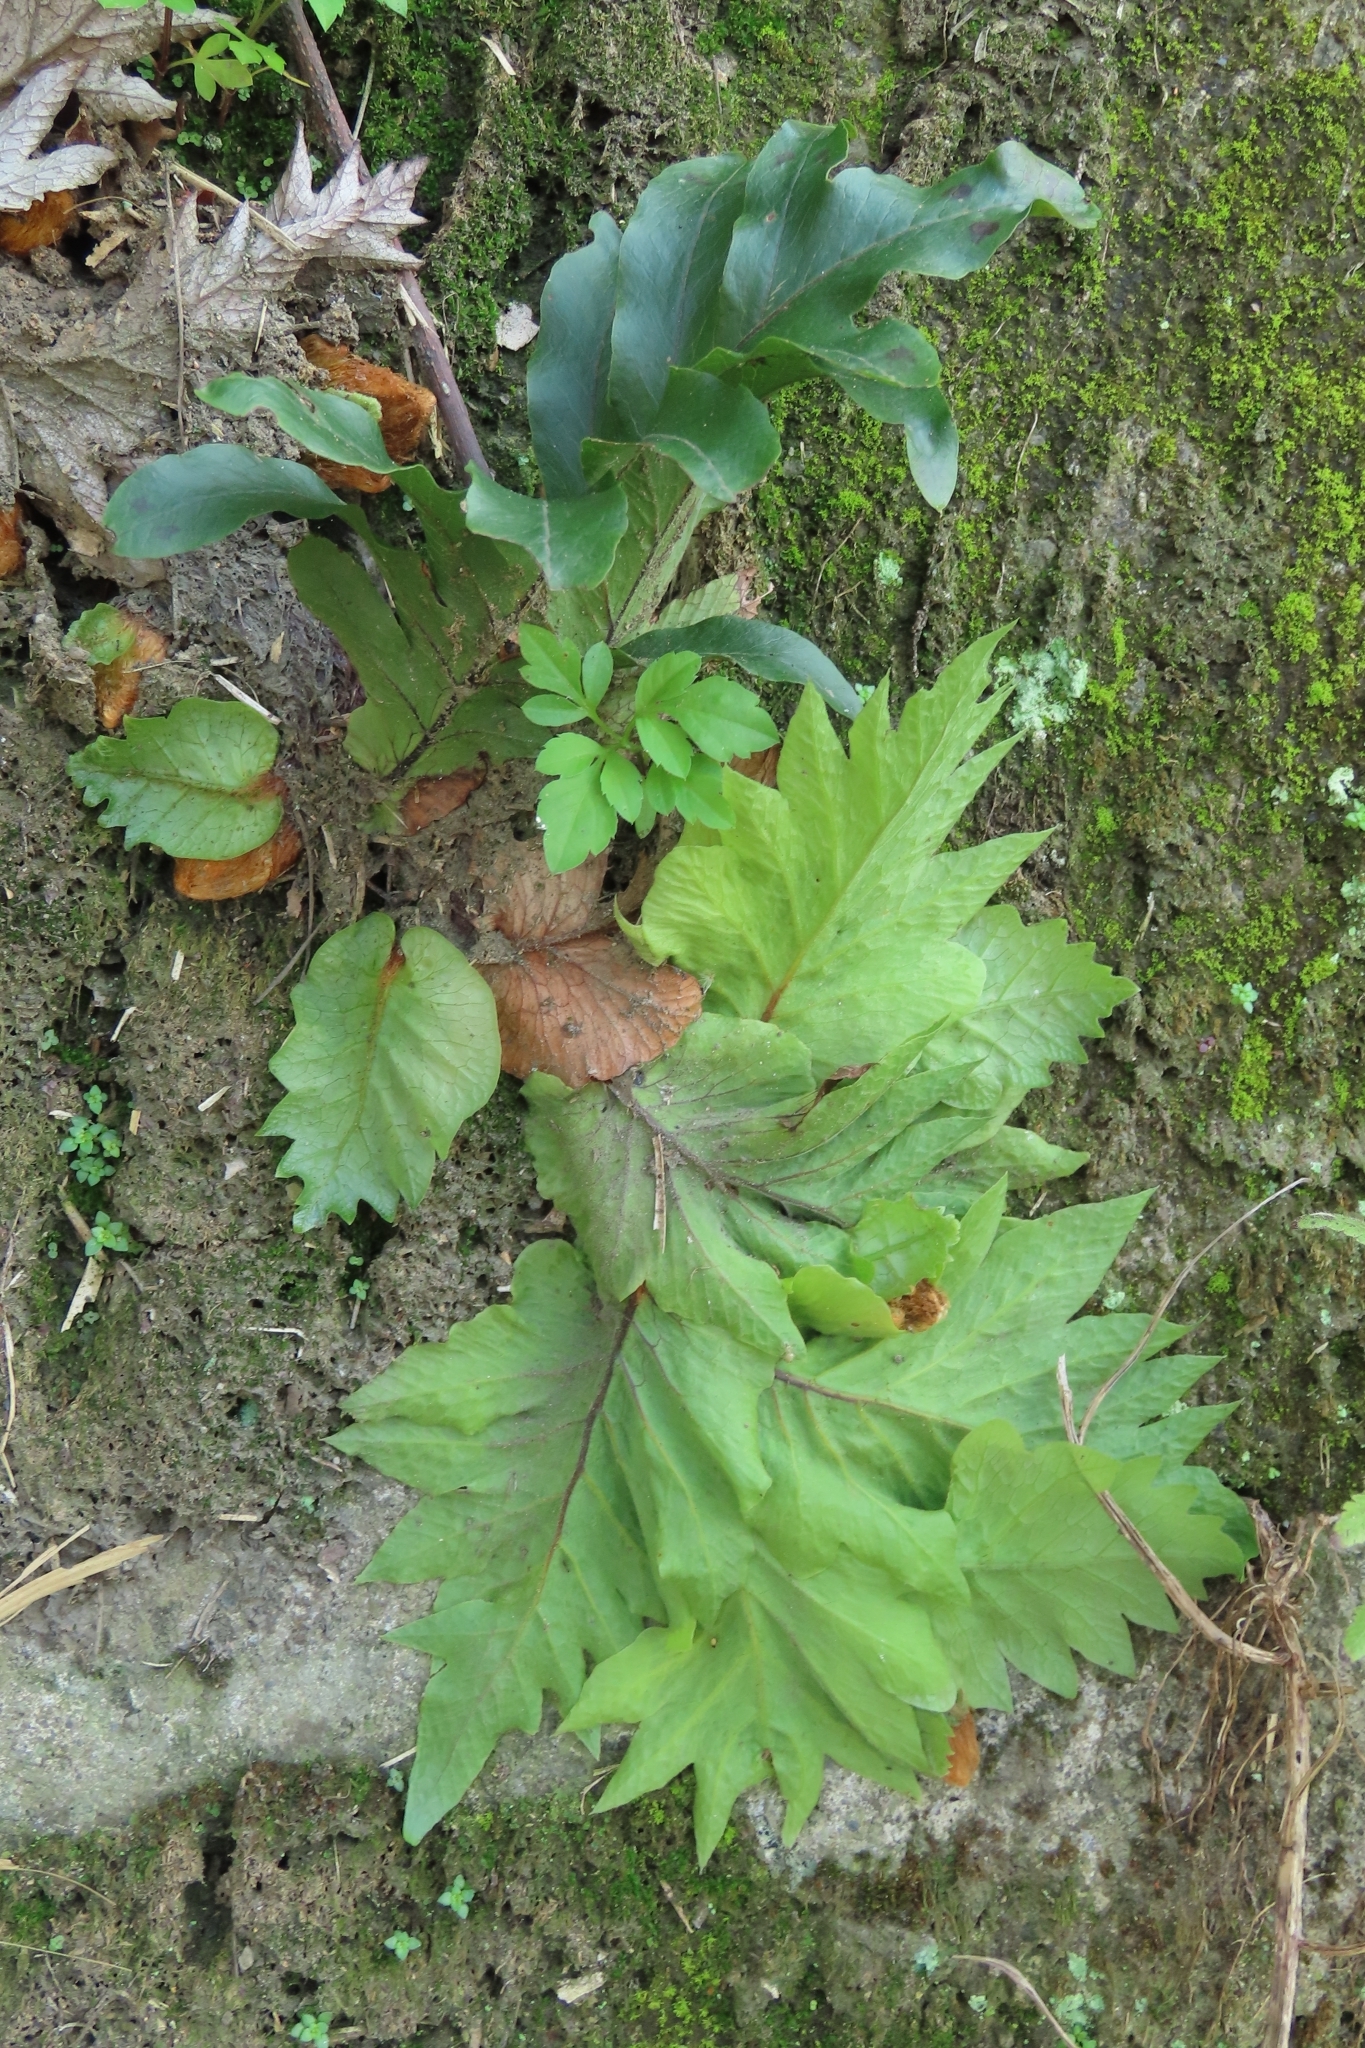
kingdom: Plantae
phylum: Tracheophyta
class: Polypodiopsida
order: Polypodiales
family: Polypodiaceae
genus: Drynaria
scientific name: Drynaria roosii
